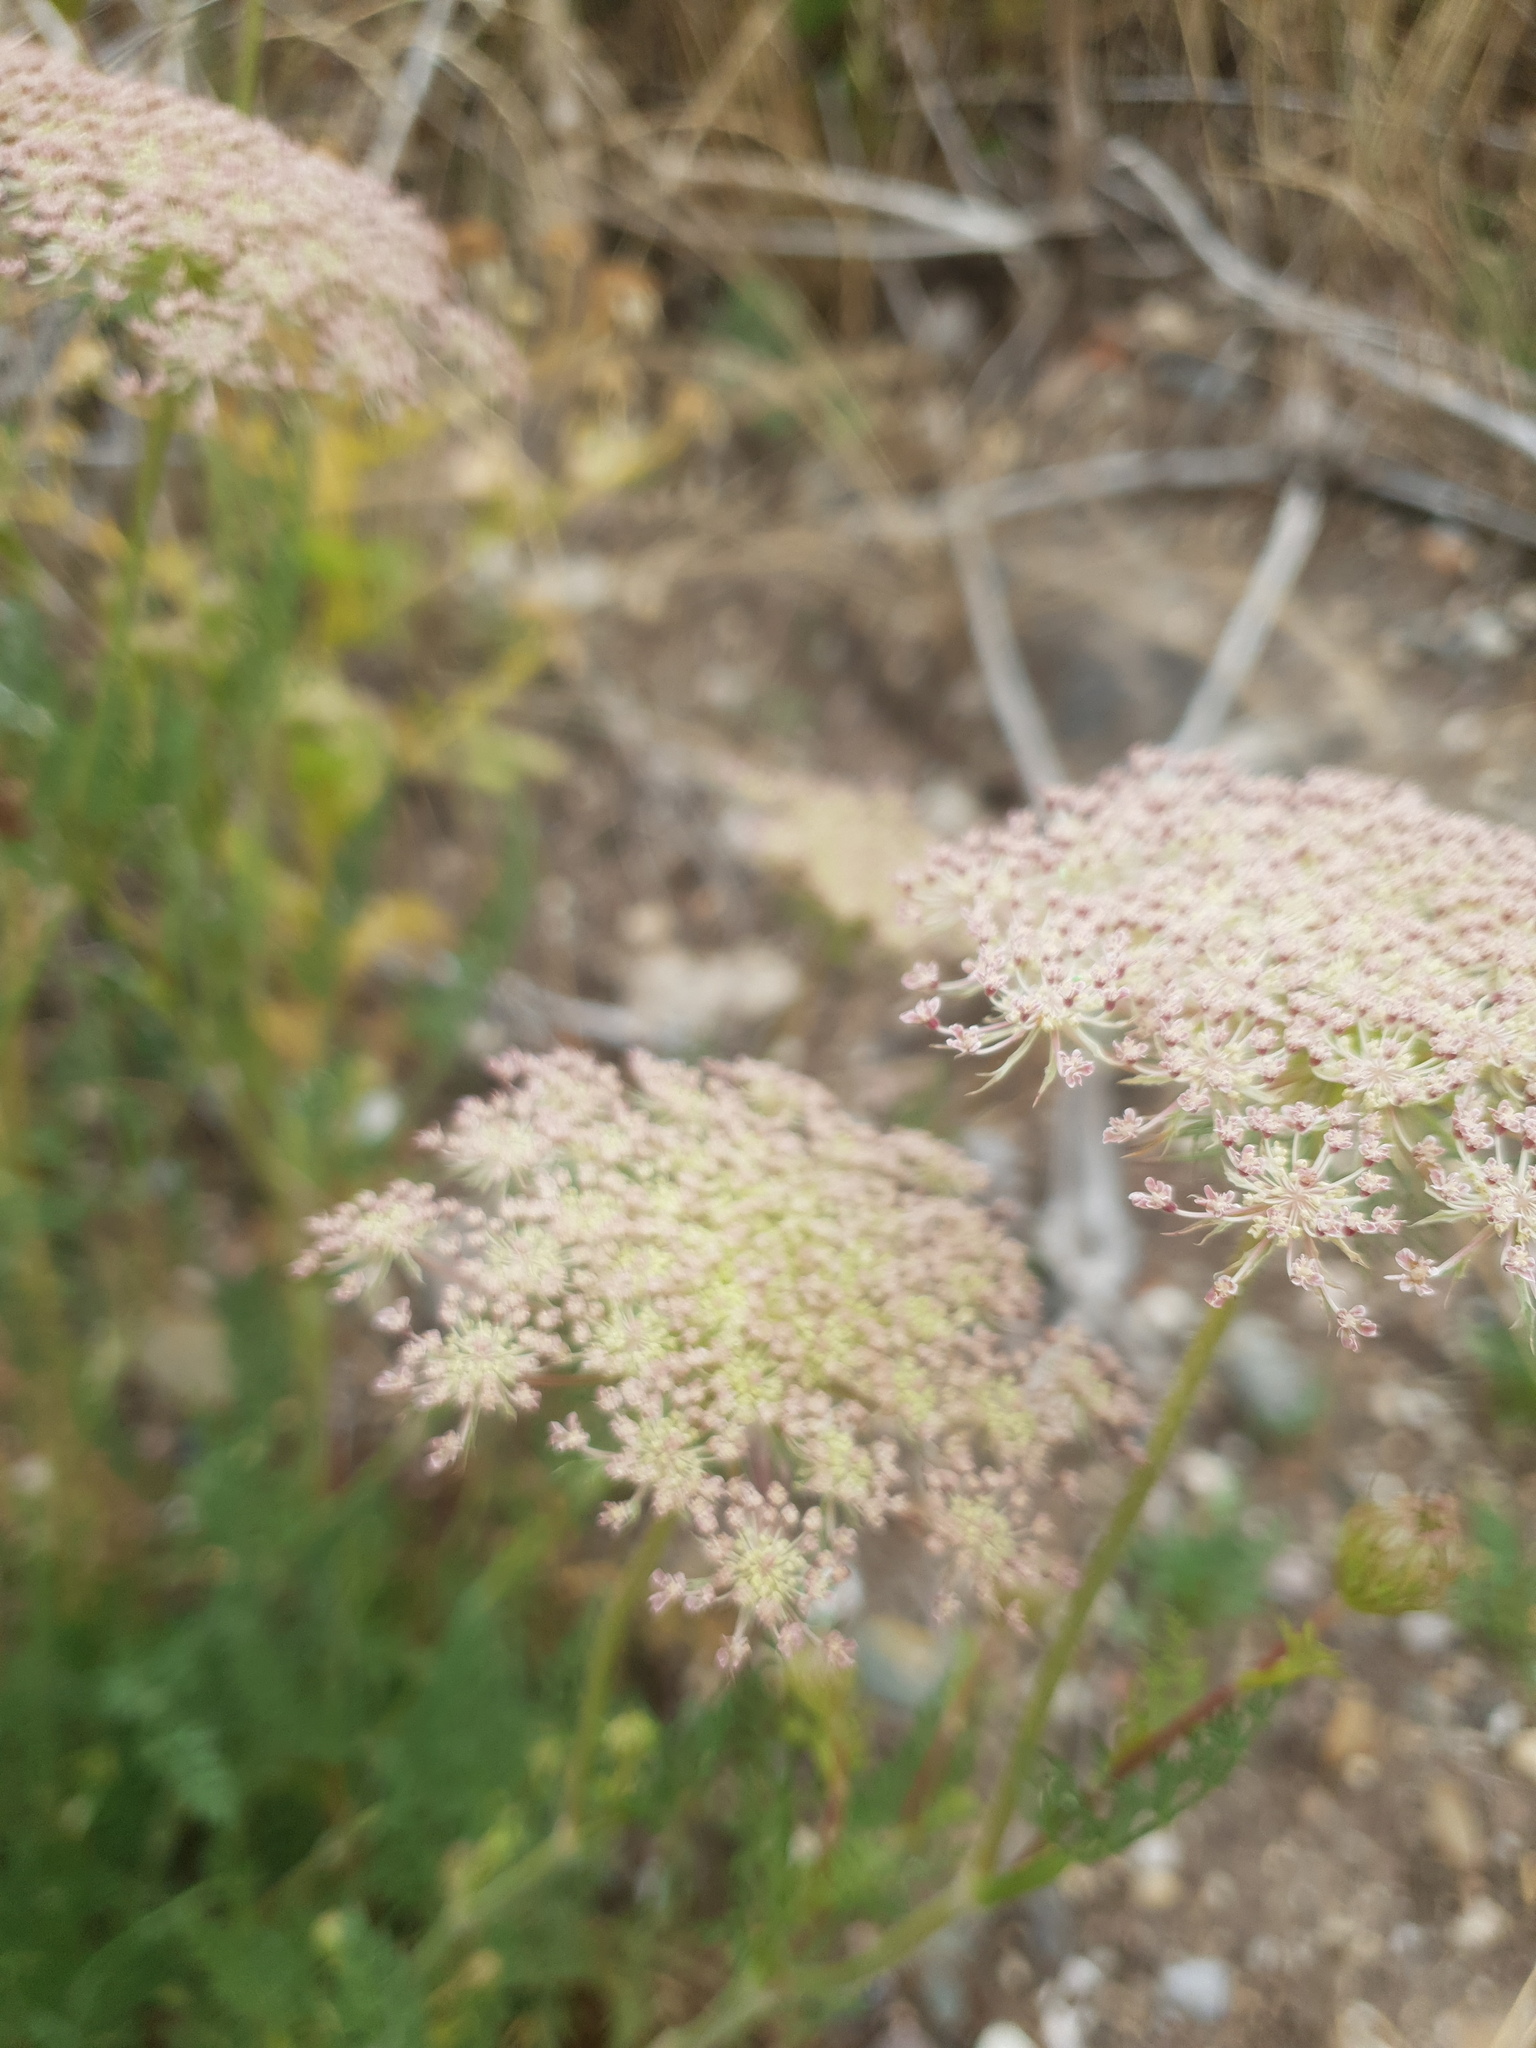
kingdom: Plantae
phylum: Tracheophyta
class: Magnoliopsida
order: Apiales
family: Apiaceae
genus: Daucus
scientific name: Daucus carota
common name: Wild carrot
